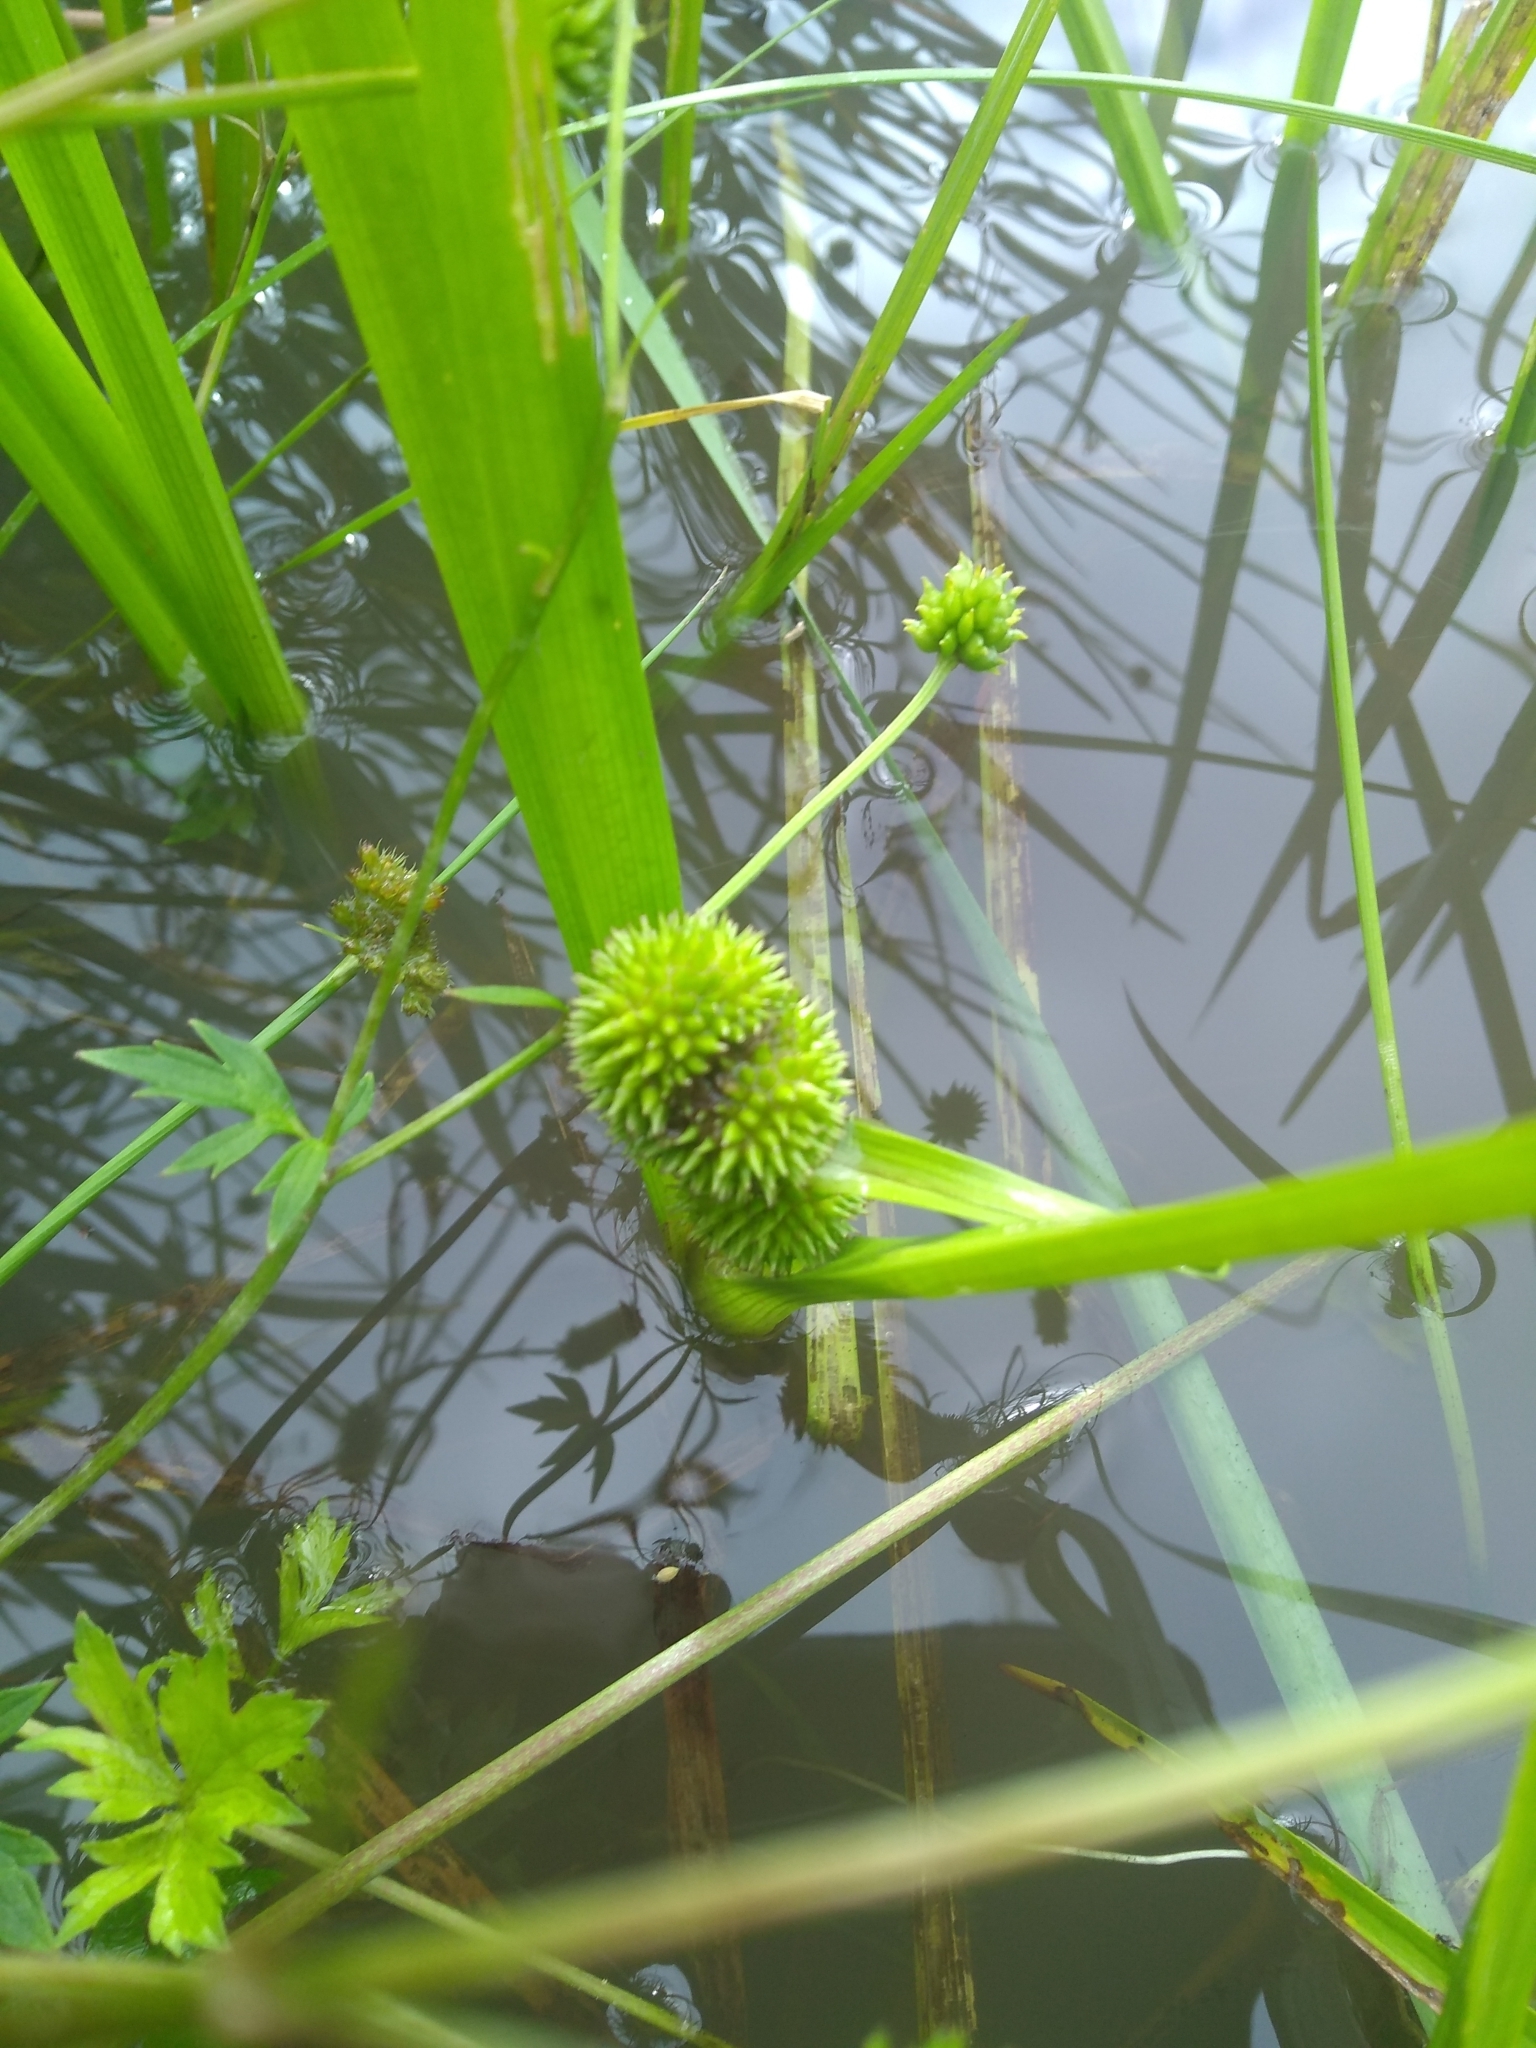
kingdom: Plantae
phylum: Tracheophyta
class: Liliopsida
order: Poales
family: Typhaceae
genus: Sparganium
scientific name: Sparganium emersum
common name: Unbranched bur-reed
